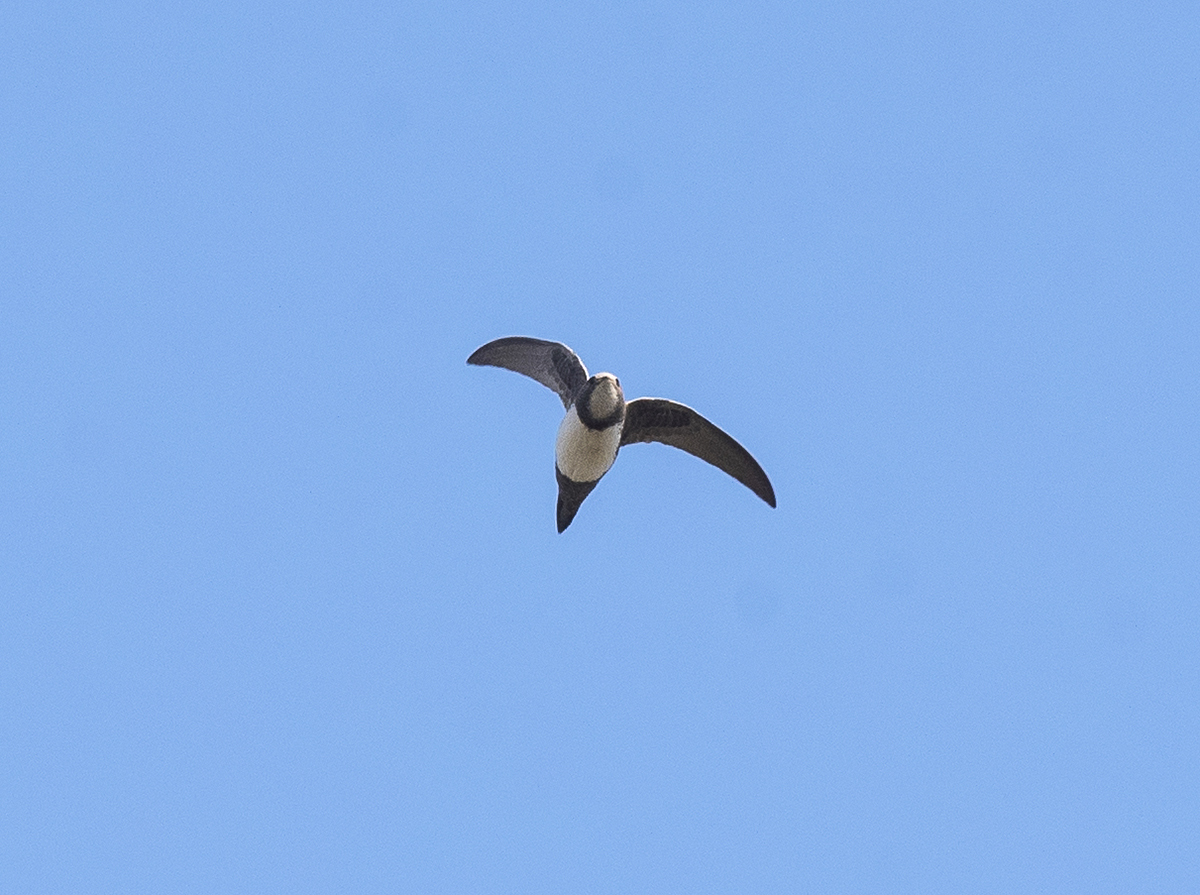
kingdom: Animalia
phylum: Chordata
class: Aves
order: Apodiformes
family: Apodidae
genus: Tachymarptis
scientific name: Tachymarptis melba
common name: Alpine swift
